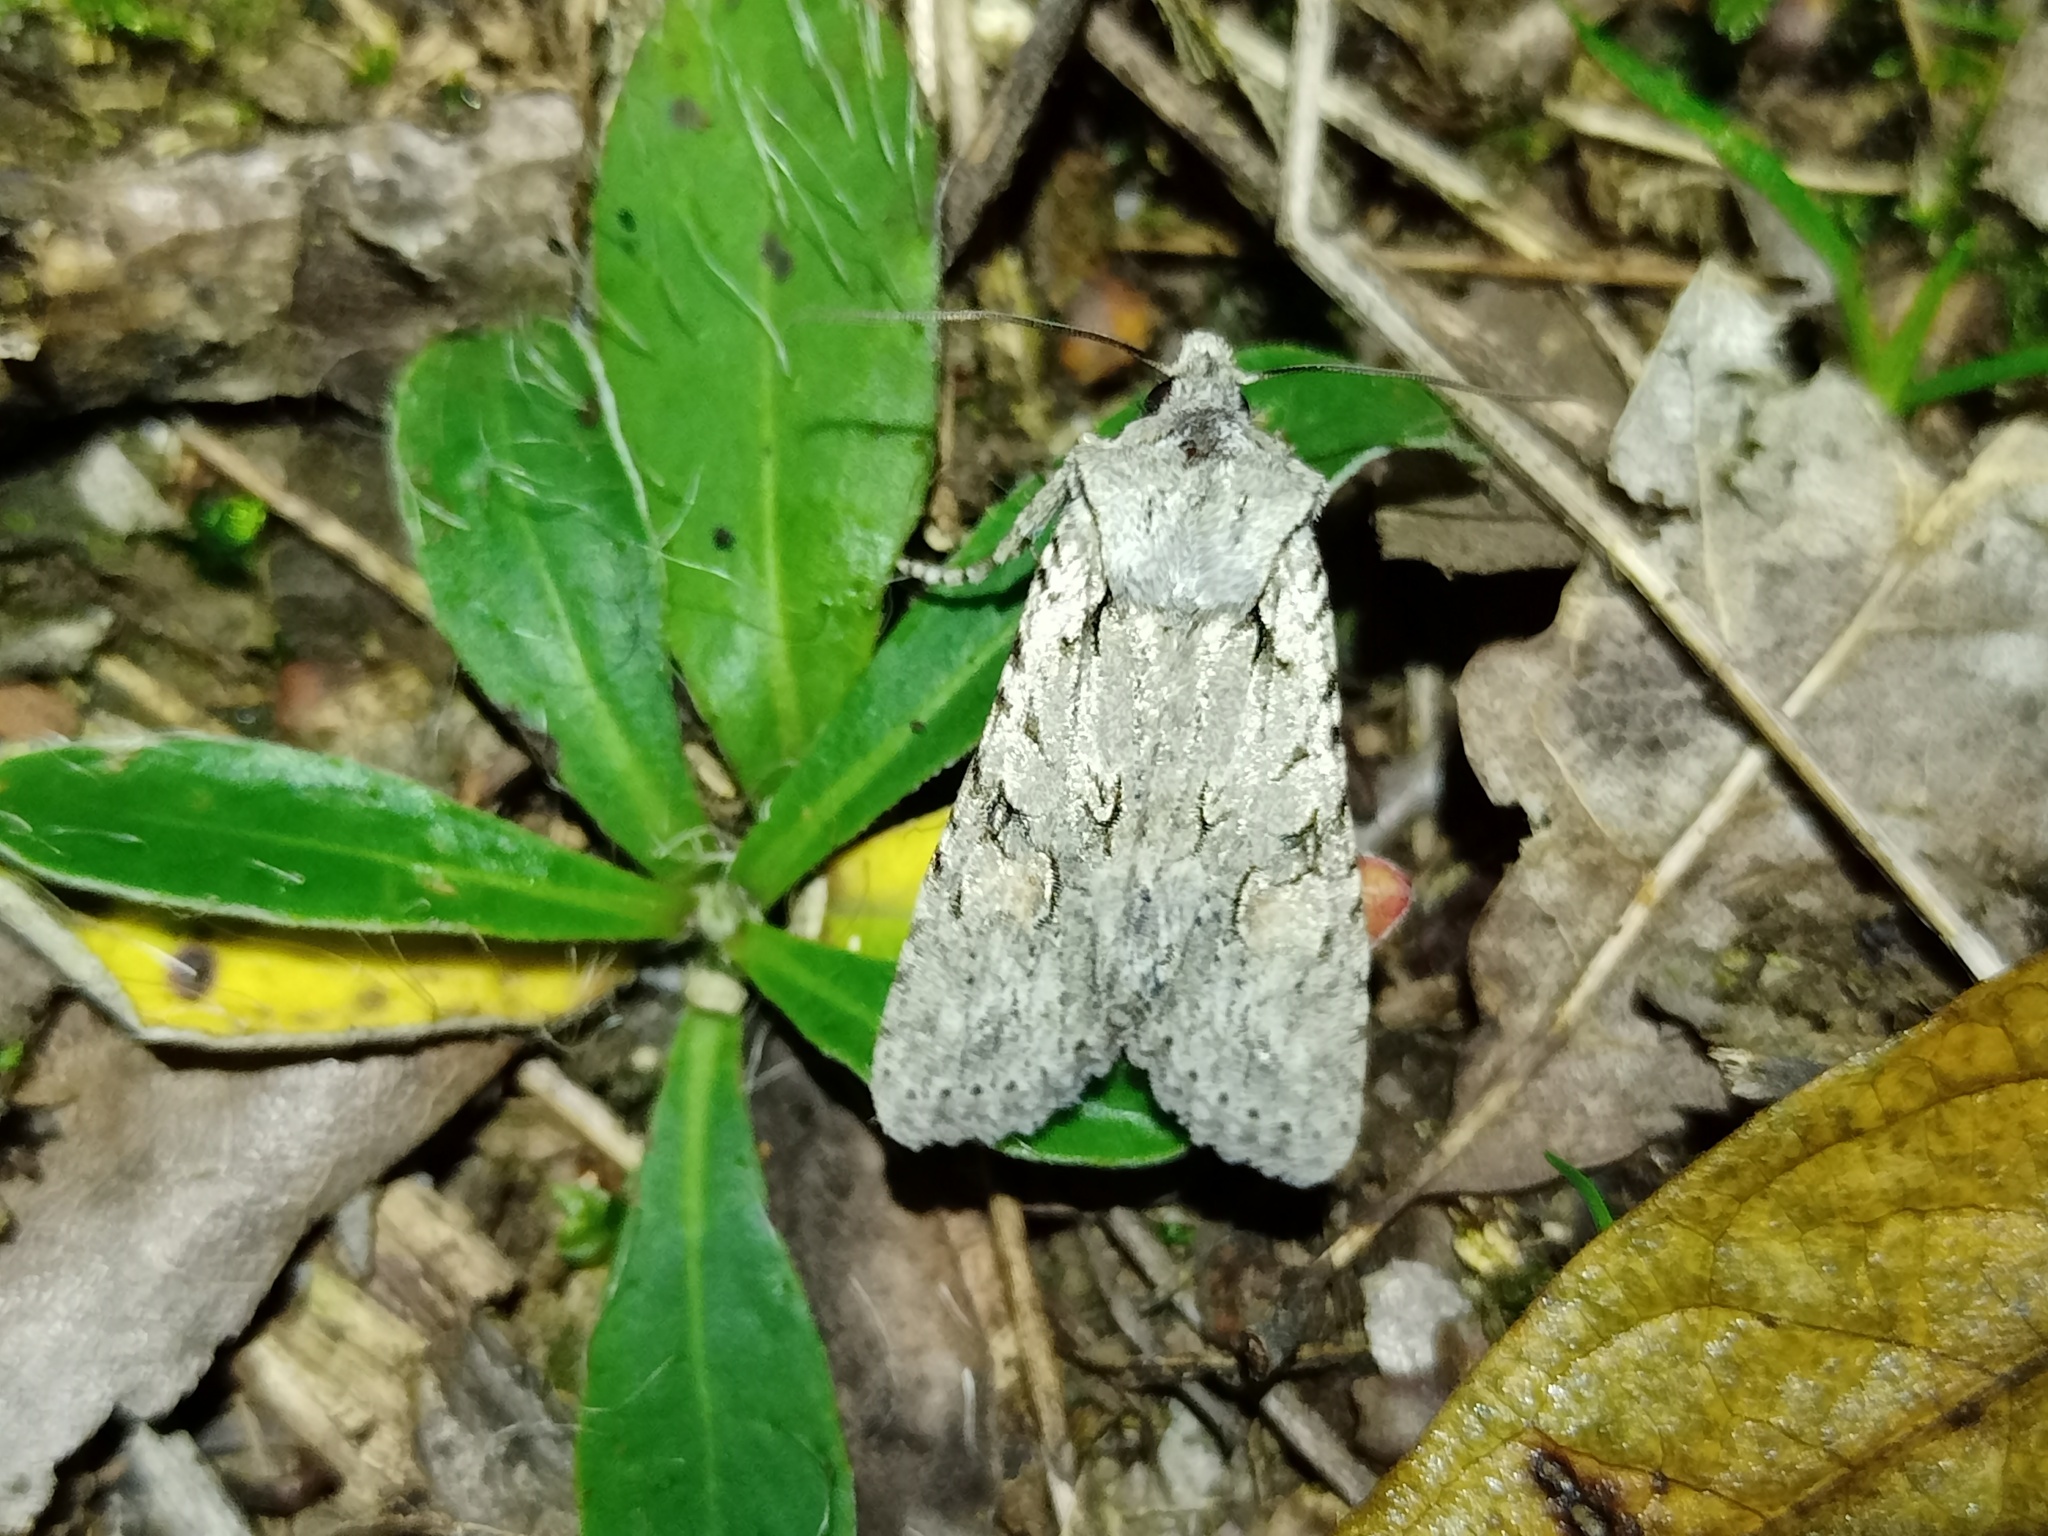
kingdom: Animalia
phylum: Arthropoda
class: Insecta
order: Lepidoptera
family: Noctuidae
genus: Lithophane
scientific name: Lithophane ornitopus
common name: Grey shoulder-knot
